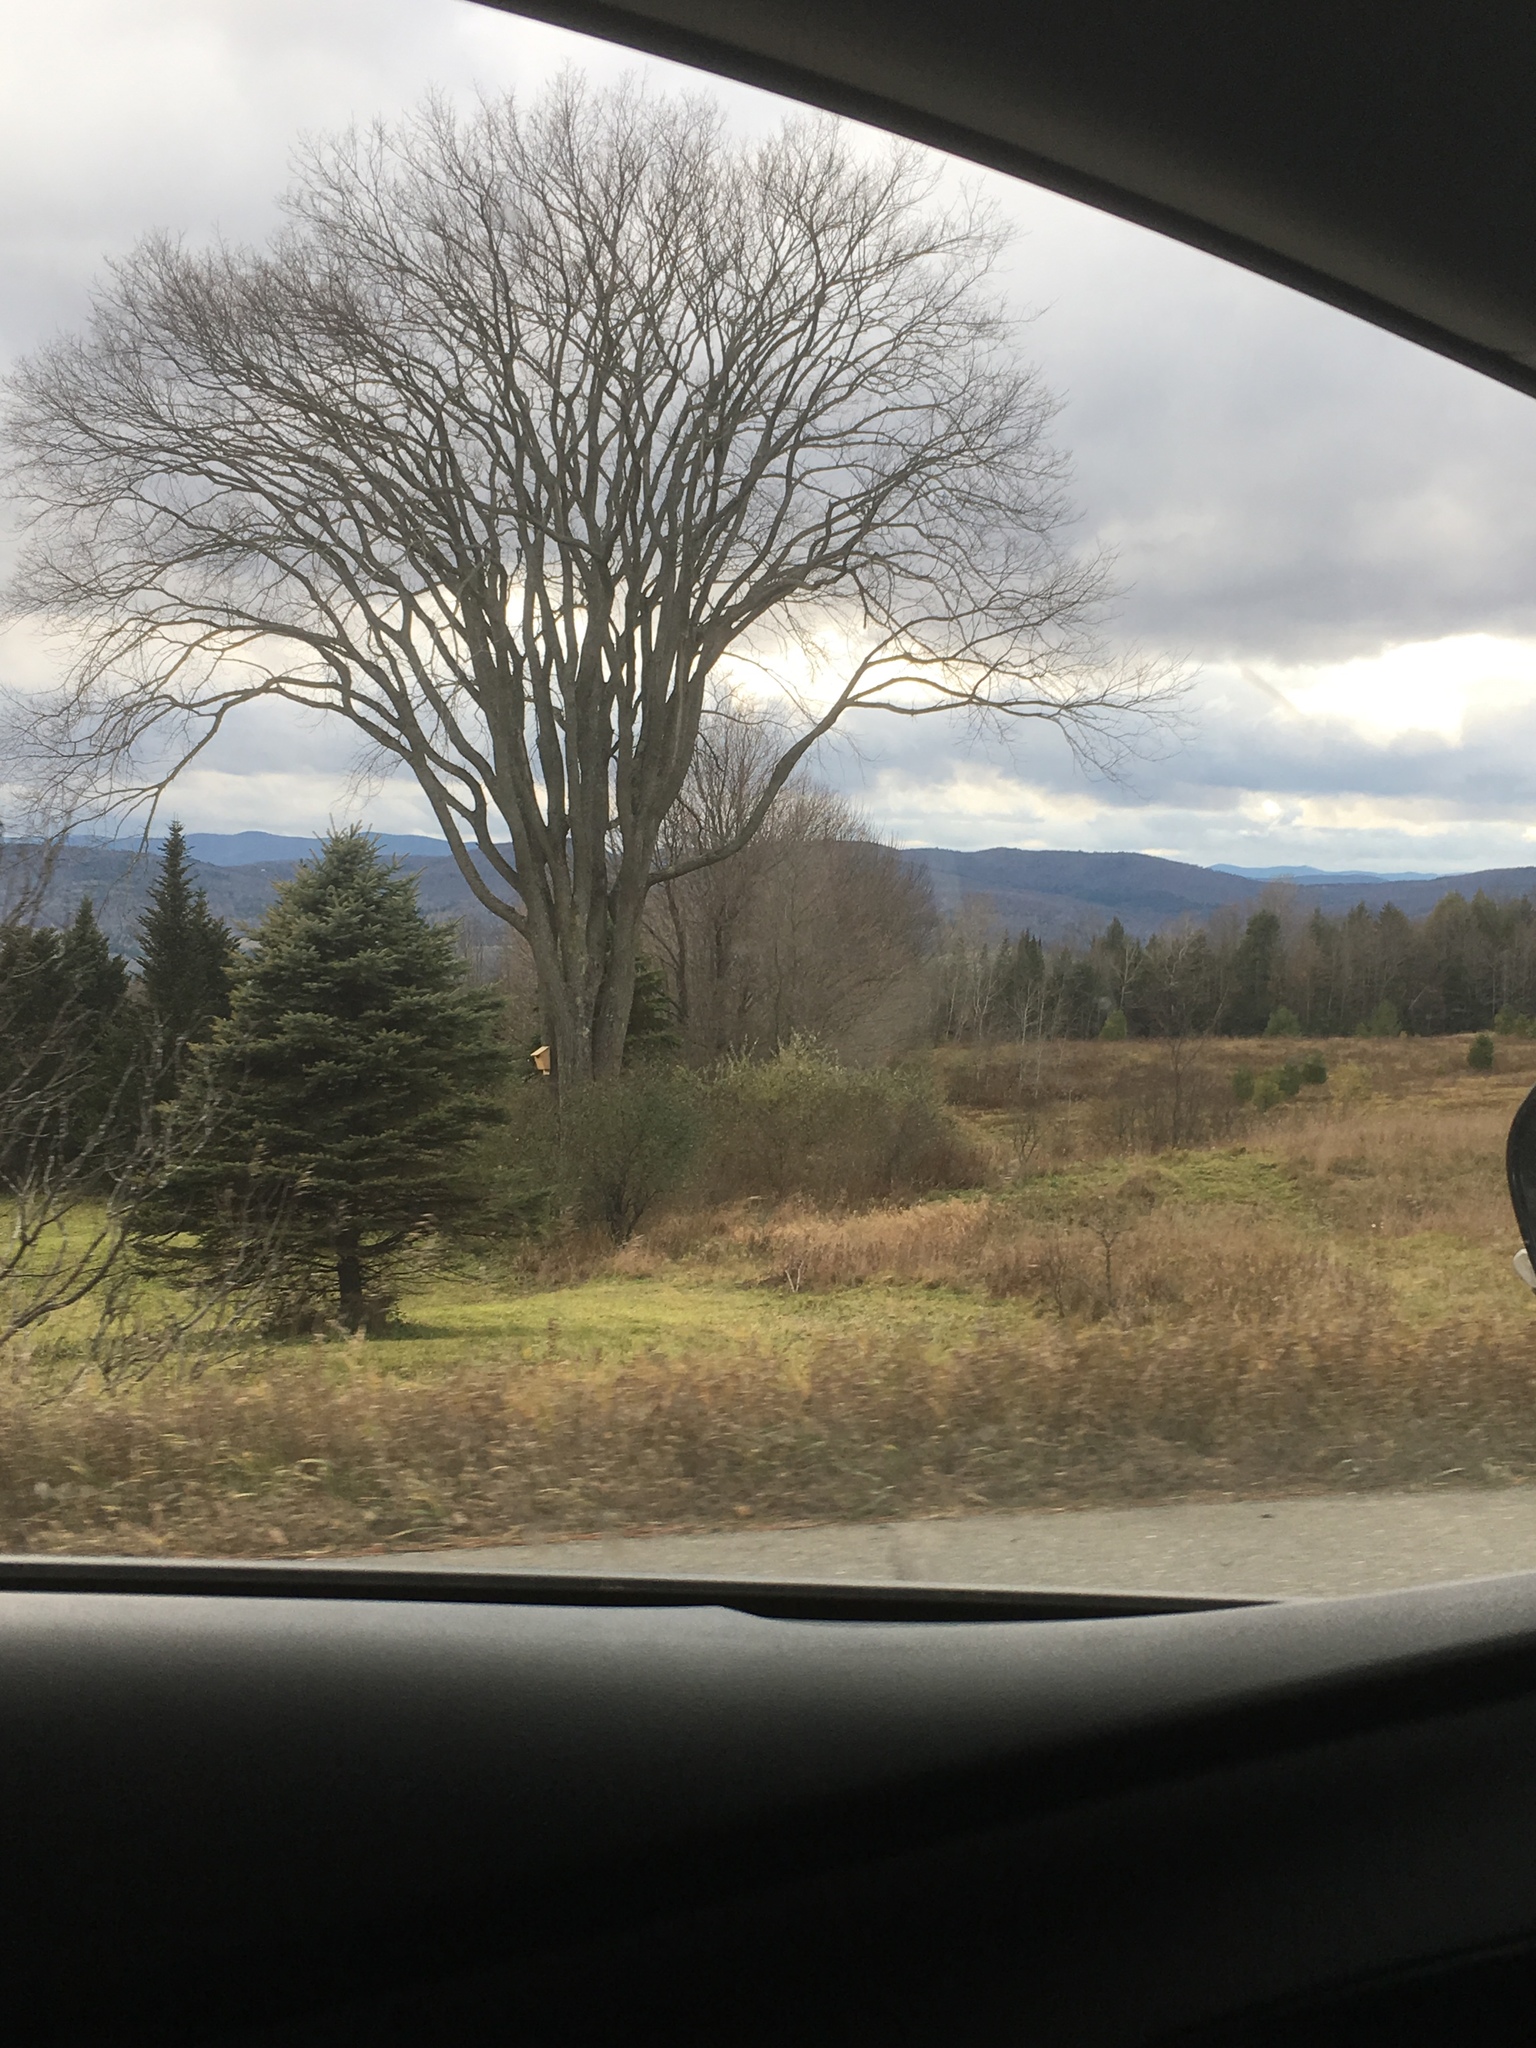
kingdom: Plantae
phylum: Tracheophyta
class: Magnoliopsida
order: Rosales
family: Ulmaceae
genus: Ulmus
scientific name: Ulmus americana
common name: American elm
